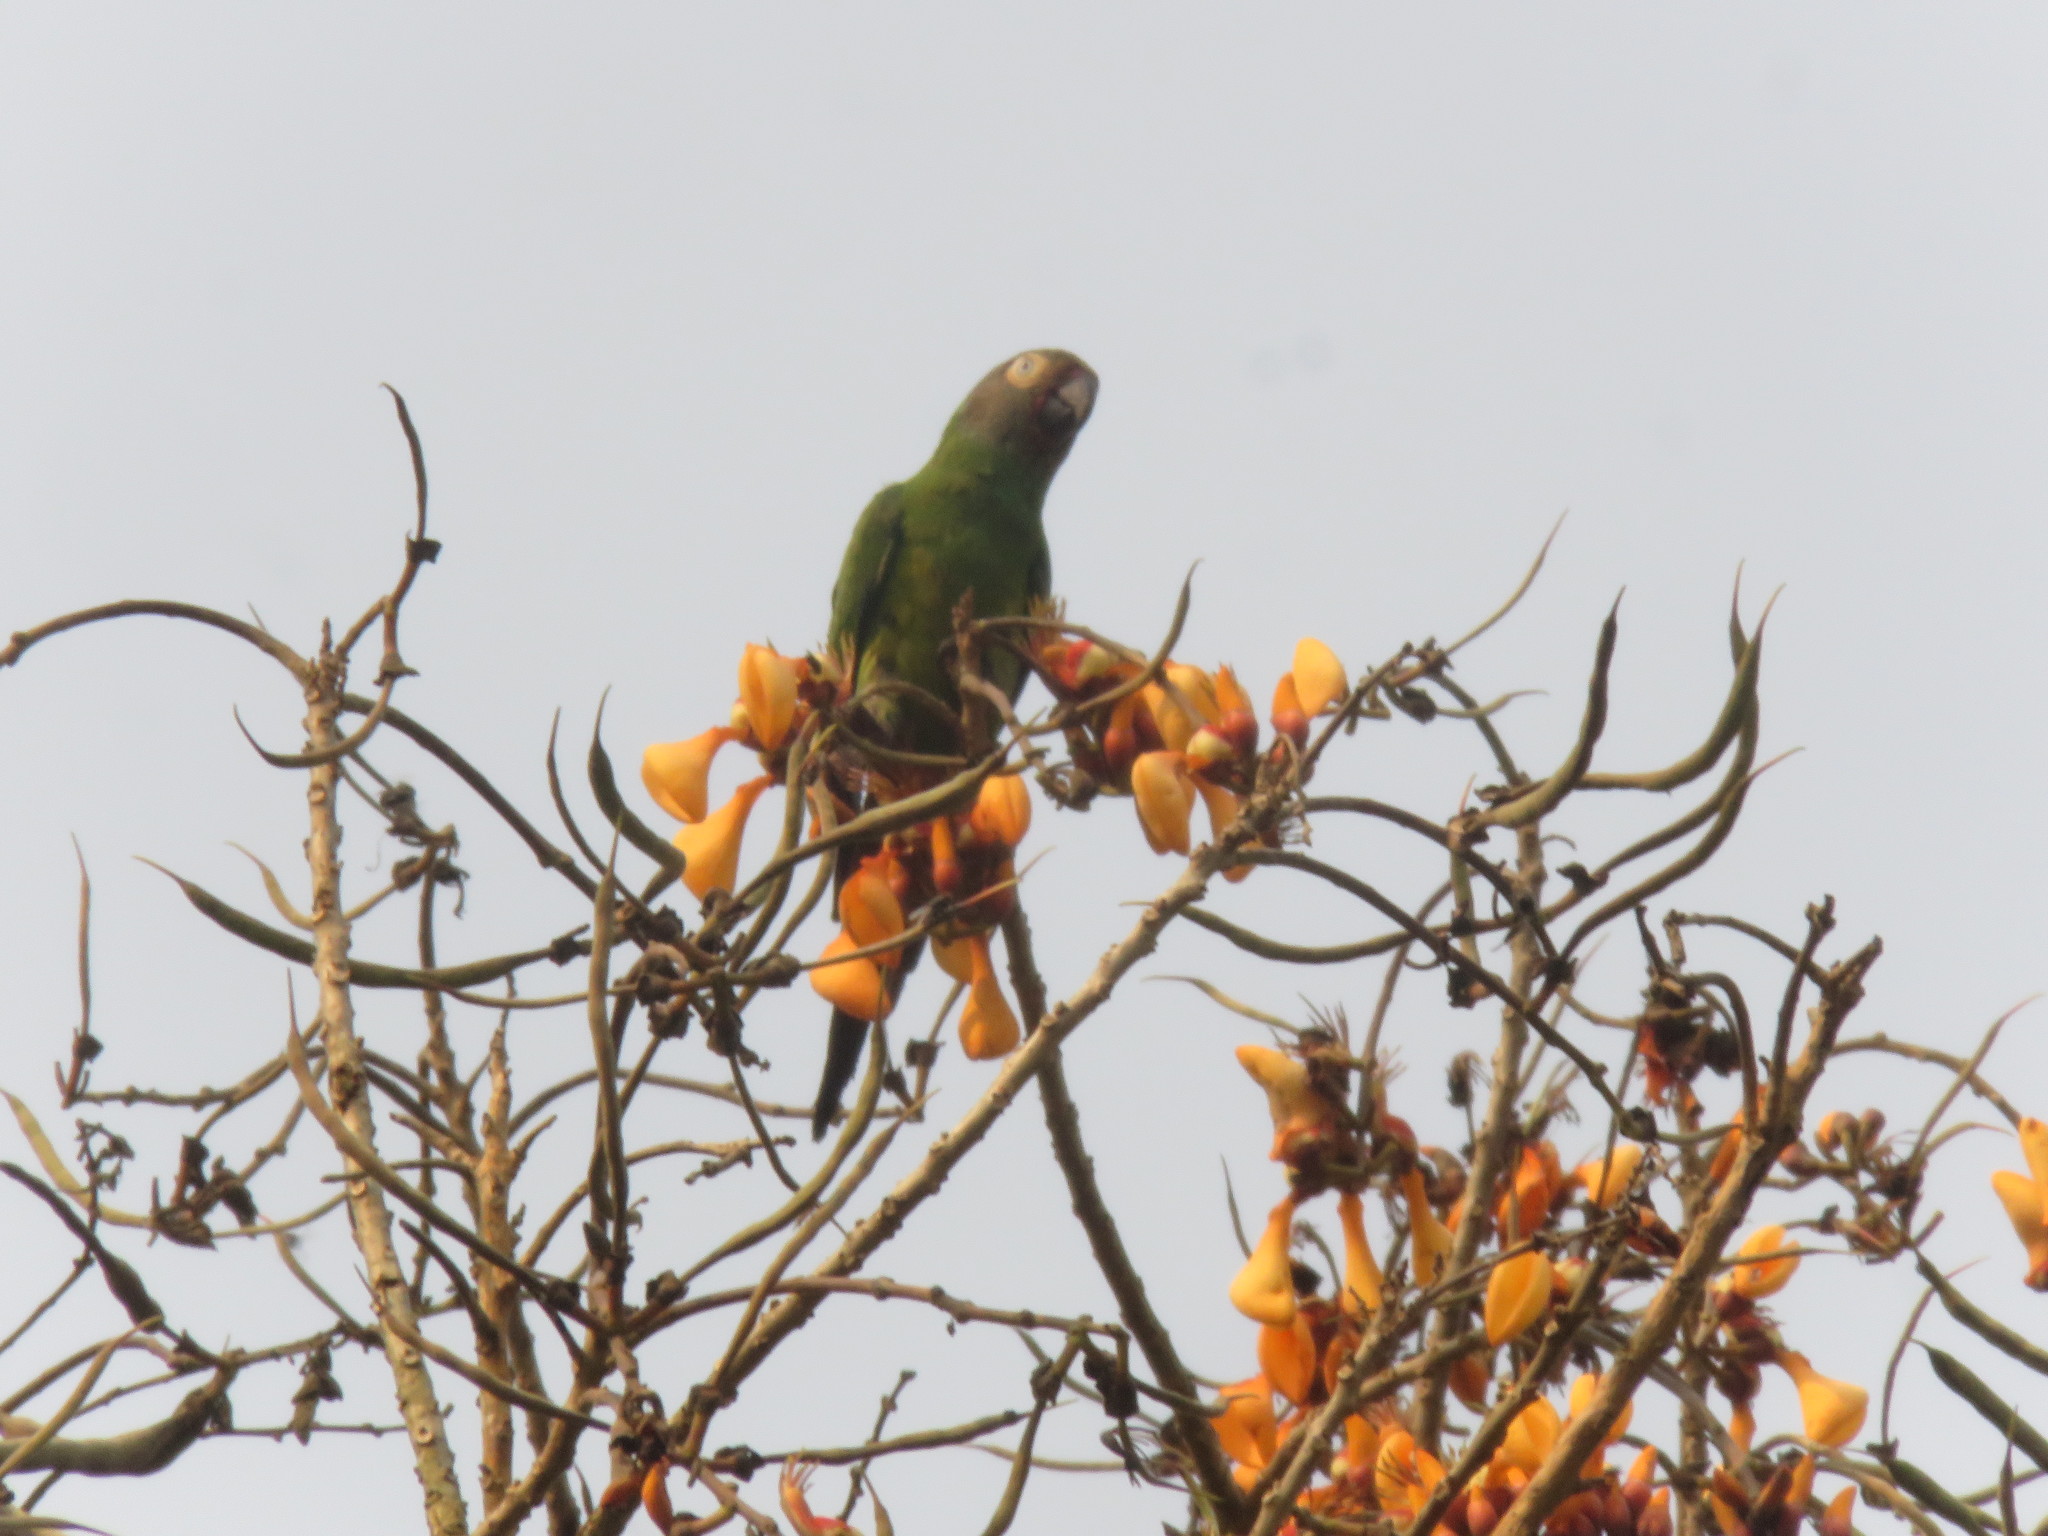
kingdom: Animalia
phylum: Chordata
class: Aves
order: Psittaciformes
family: Psittacidae
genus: Aratinga
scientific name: Aratinga weddellii
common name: Dusky-headed parakeet
